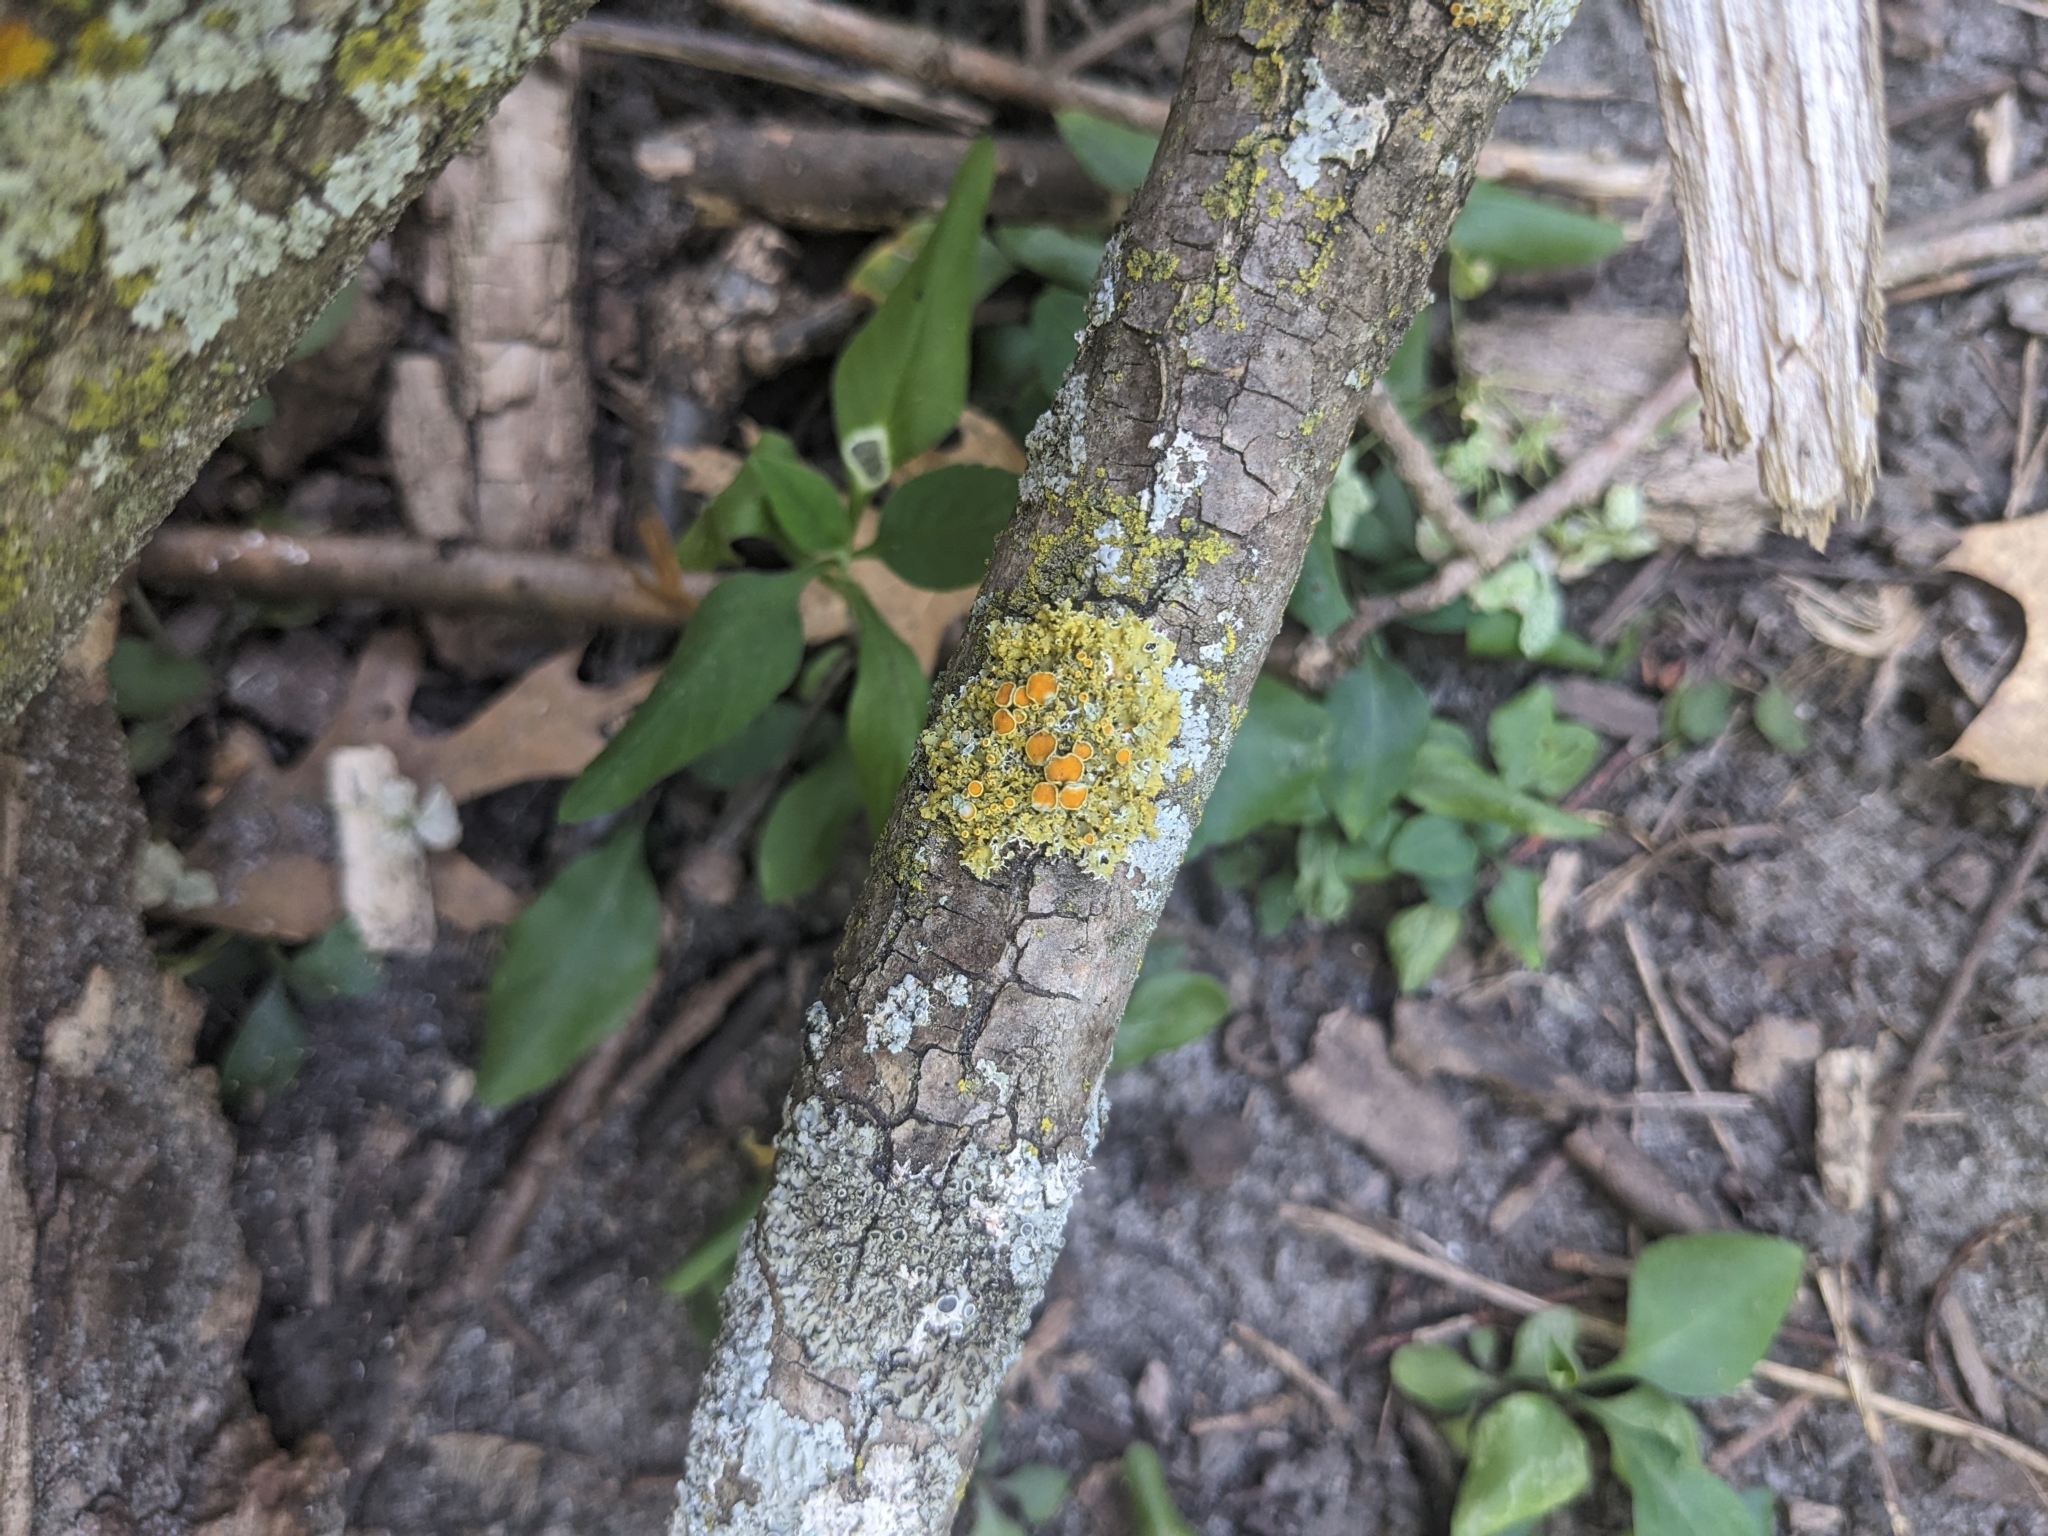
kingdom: Fungi
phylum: Ascomycota
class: Lecanoromycetes
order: Teloschistales
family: Teloschistaceae
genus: Gallowayella
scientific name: Gallowayella hasseana
